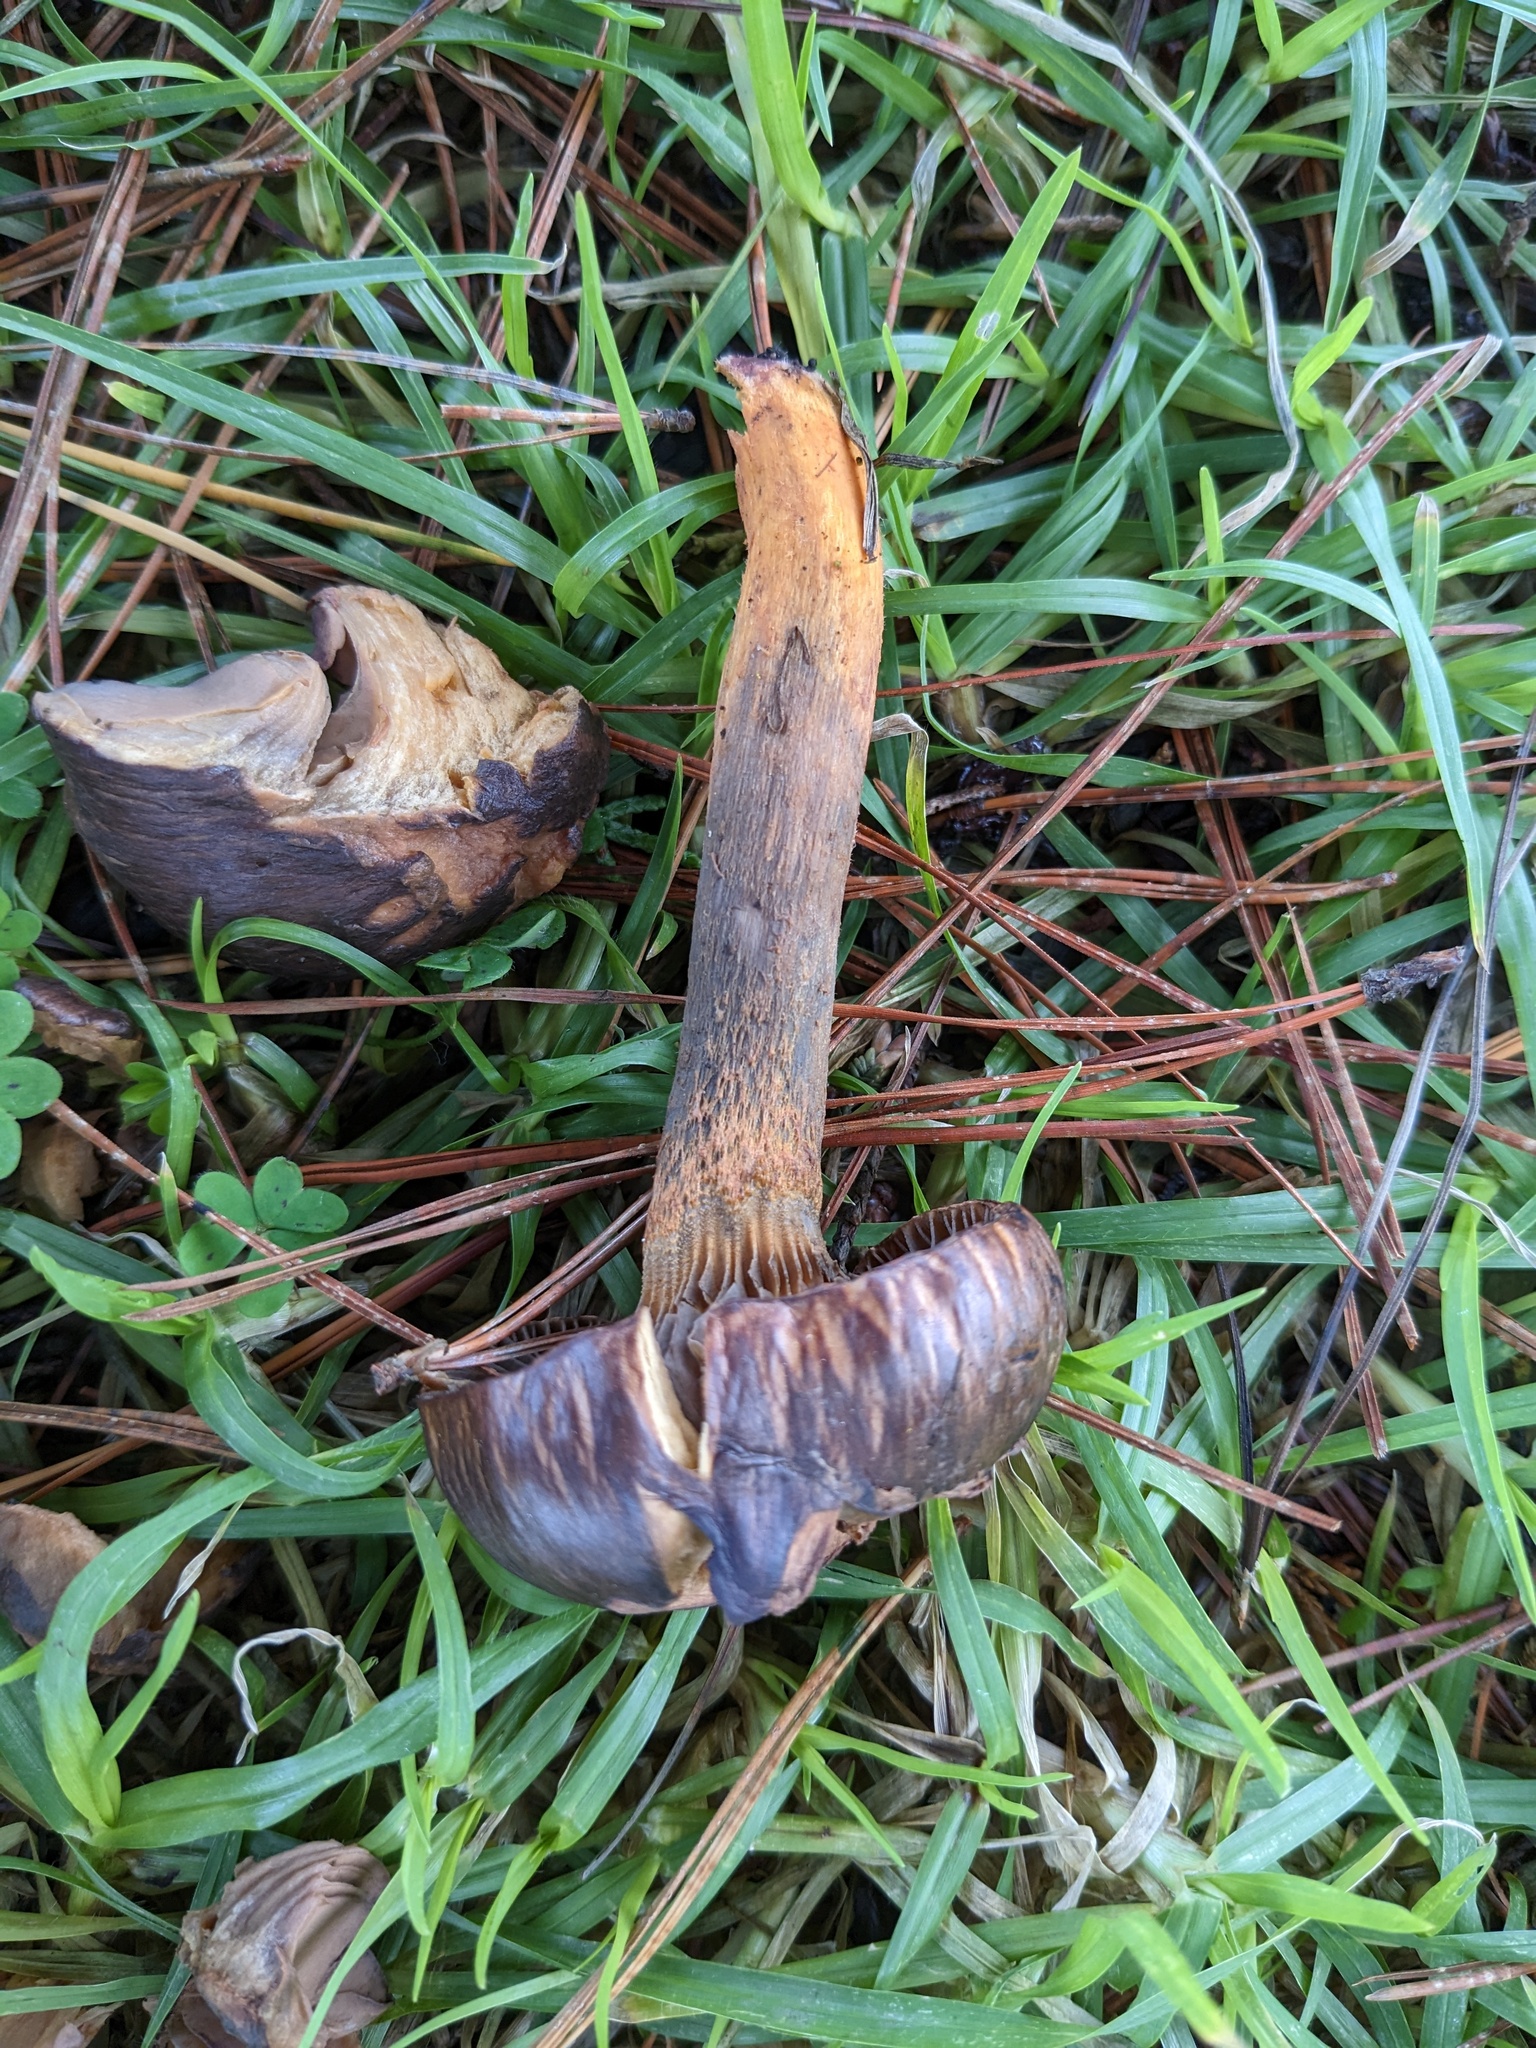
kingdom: Fungi
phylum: Basidiomycota
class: Agaricomycetes
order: Boletales
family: Gomphidiaceae
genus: Chroogomphus
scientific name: Chroogomphus vinicolor
